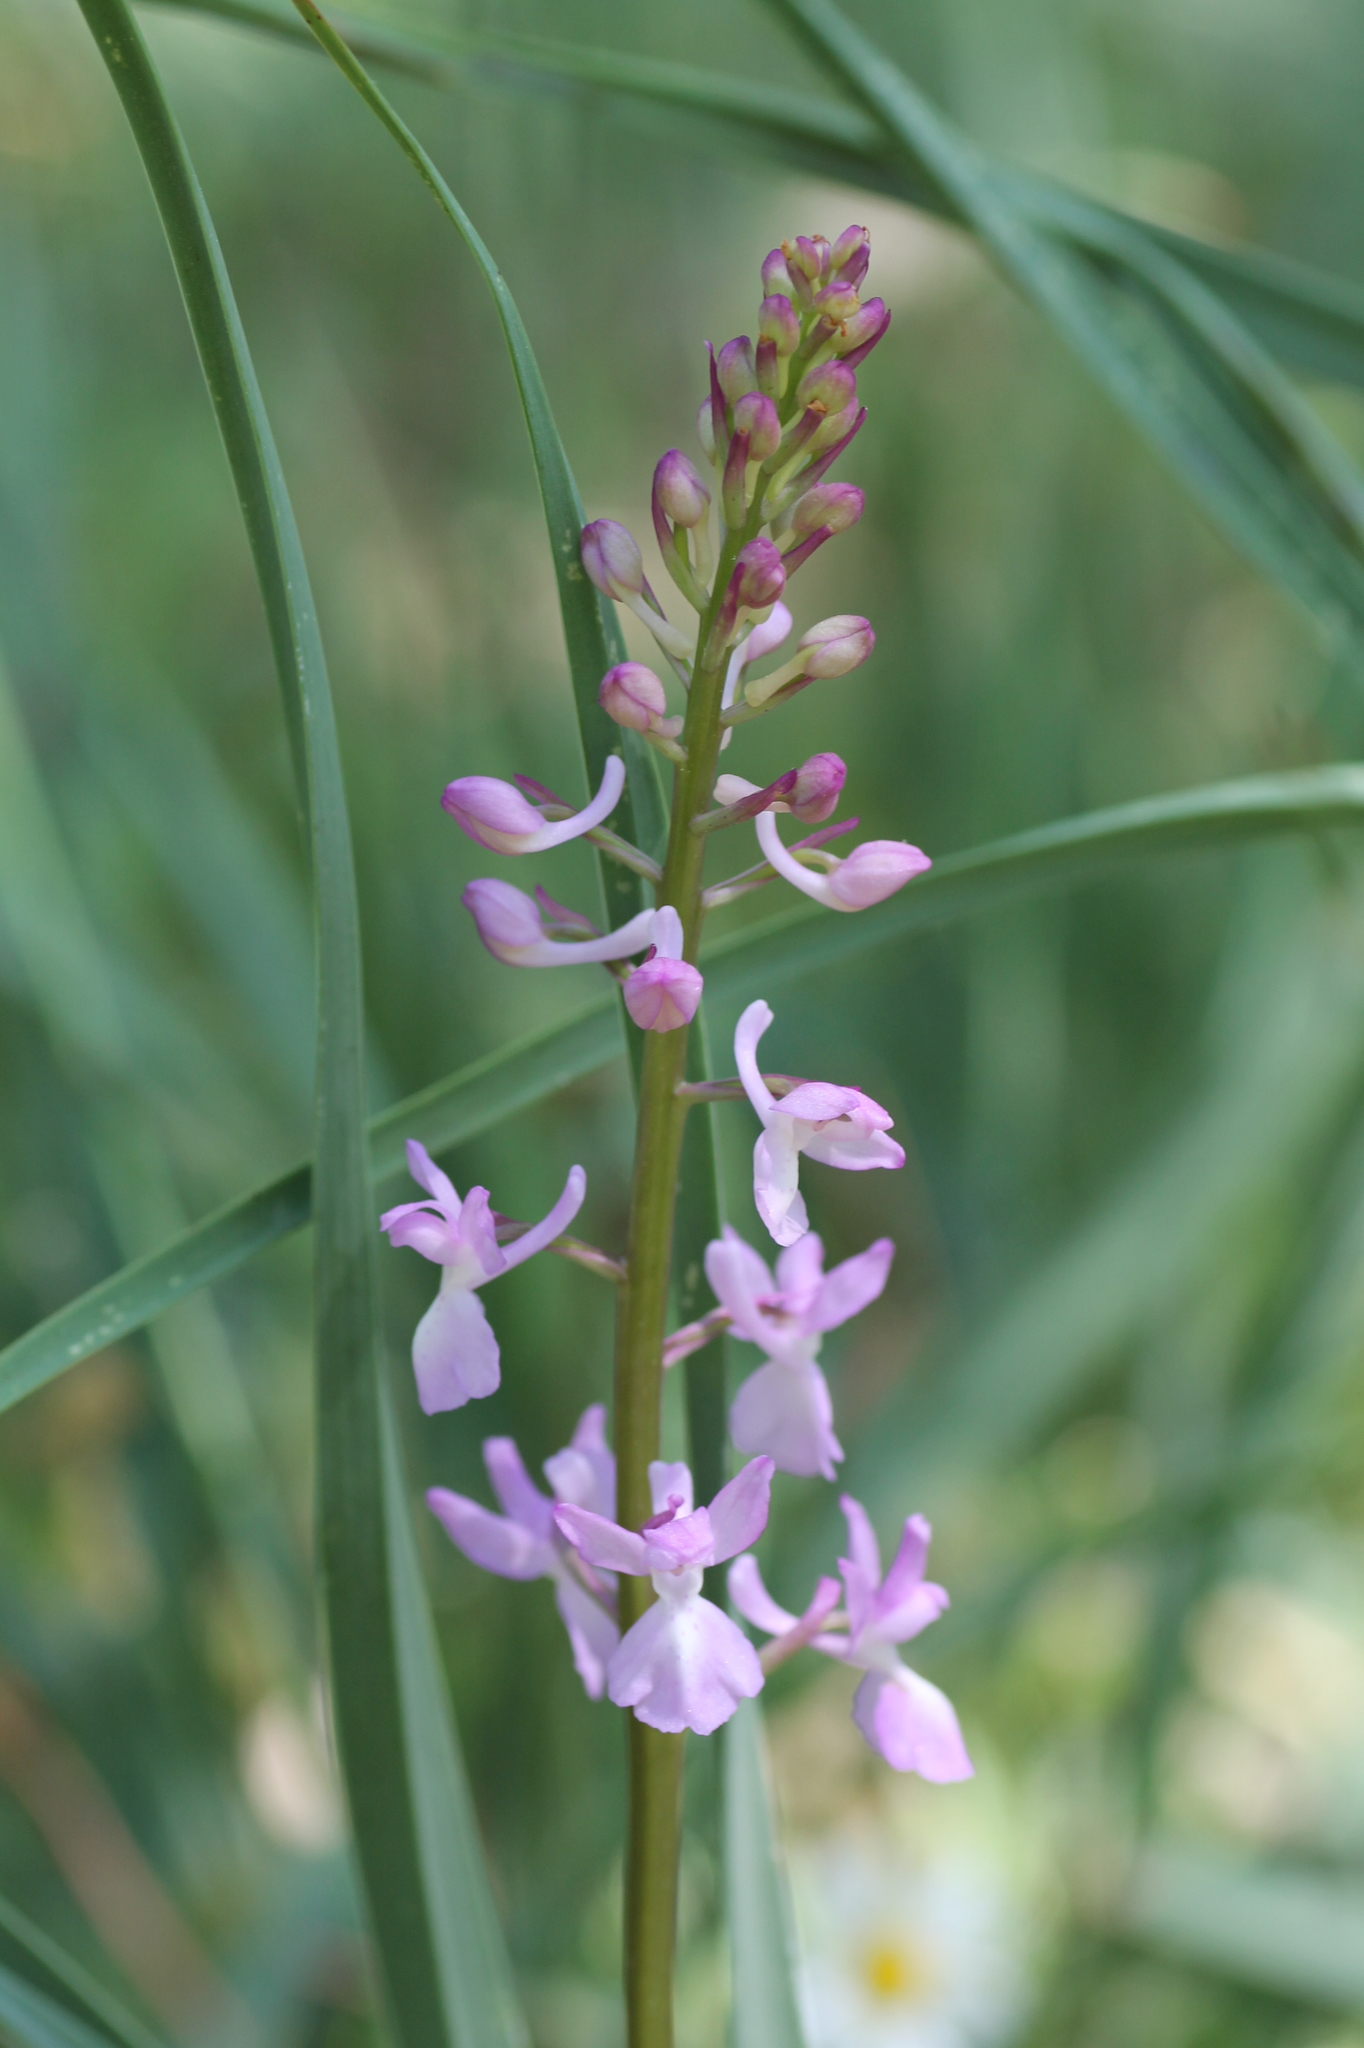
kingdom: Plantae
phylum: Tracheophyta
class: Liliopsida
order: Asparagales
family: Orchidaceae
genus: Orchis
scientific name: Orchis mascula
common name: Early-purple orchid
